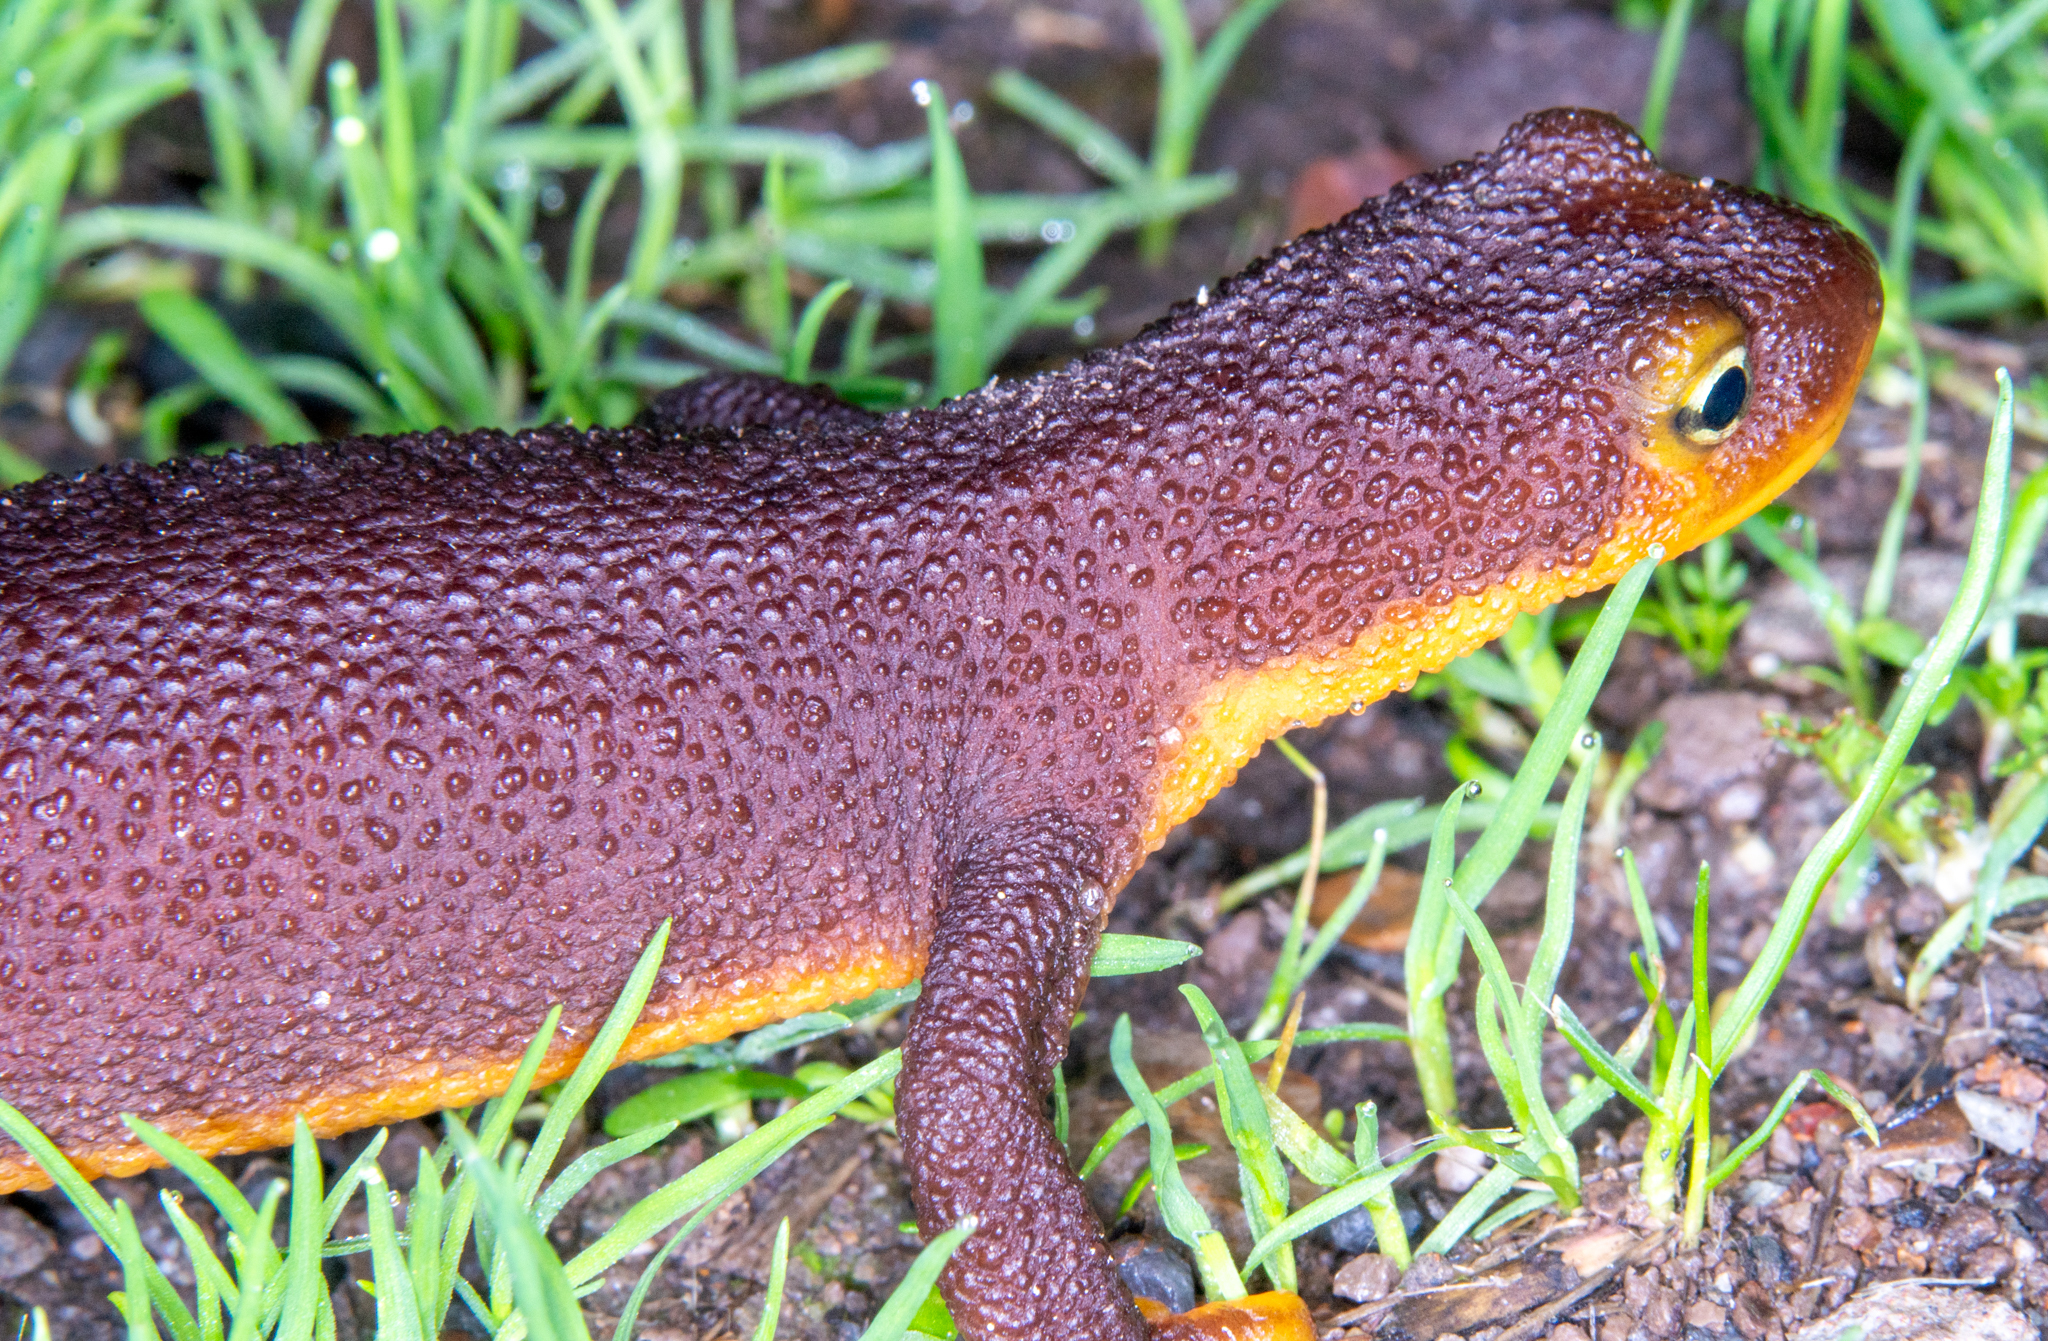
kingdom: Animalia
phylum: Chordata
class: Amphibia
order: Caudata
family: Salamandridae
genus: Taricha
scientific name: Taricha torosa
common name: California newt
